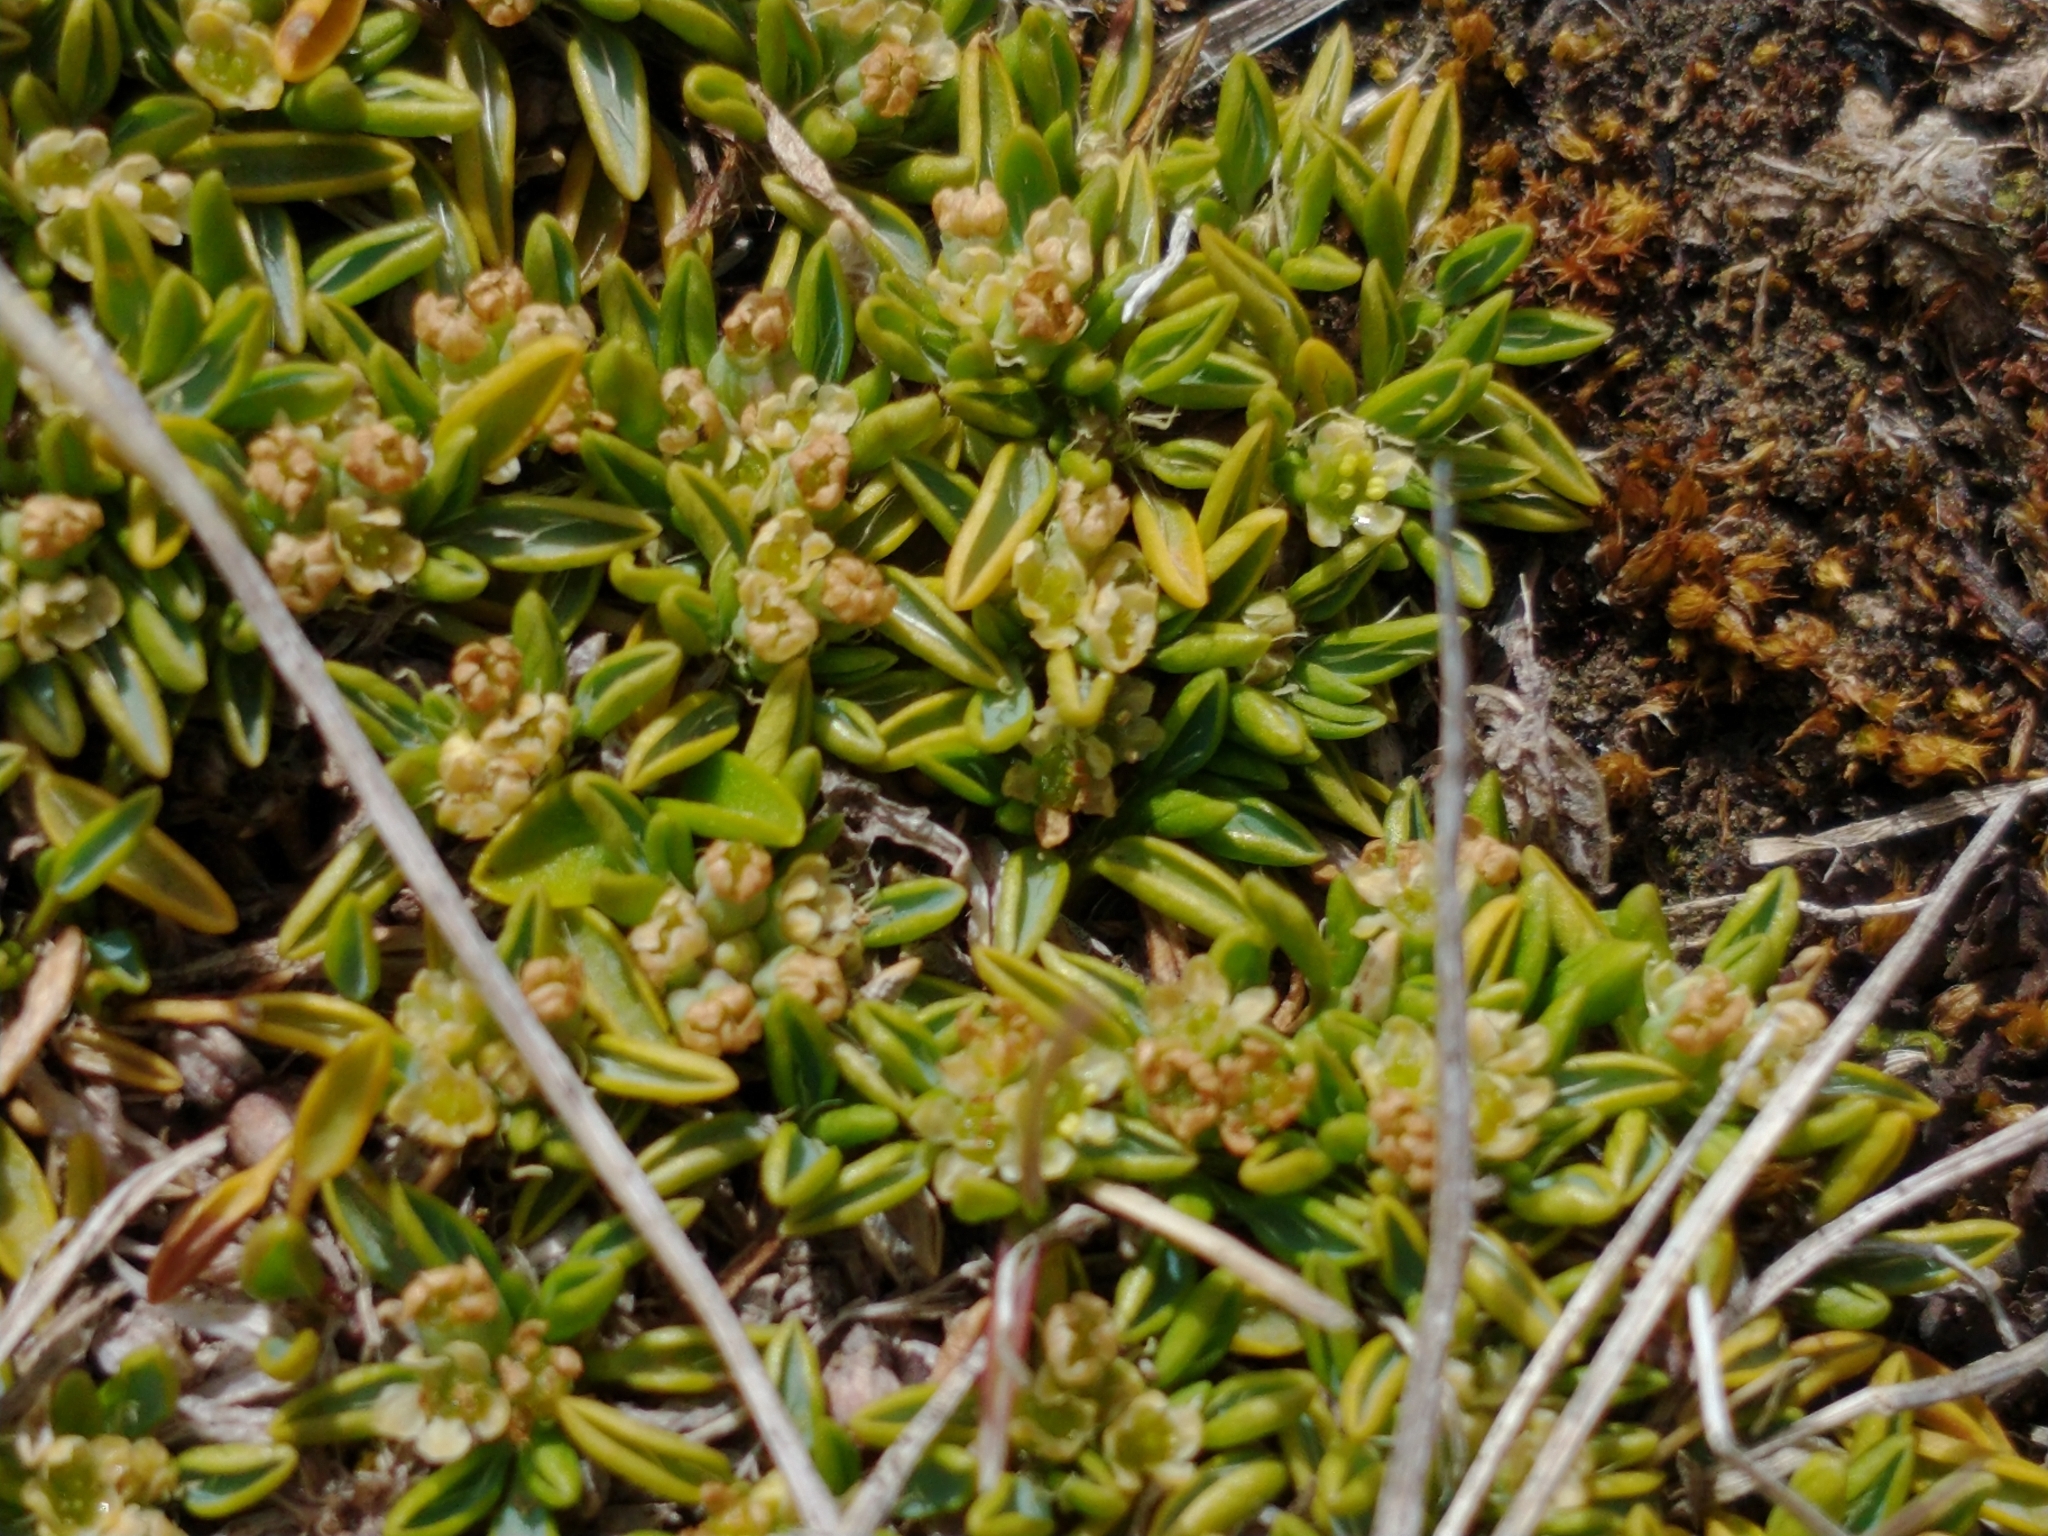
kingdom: Plantae
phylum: Tracheophyta
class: Magnoliopsida
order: Apiales
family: Apiaceae
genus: Azorella
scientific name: Azorella filamentosa
